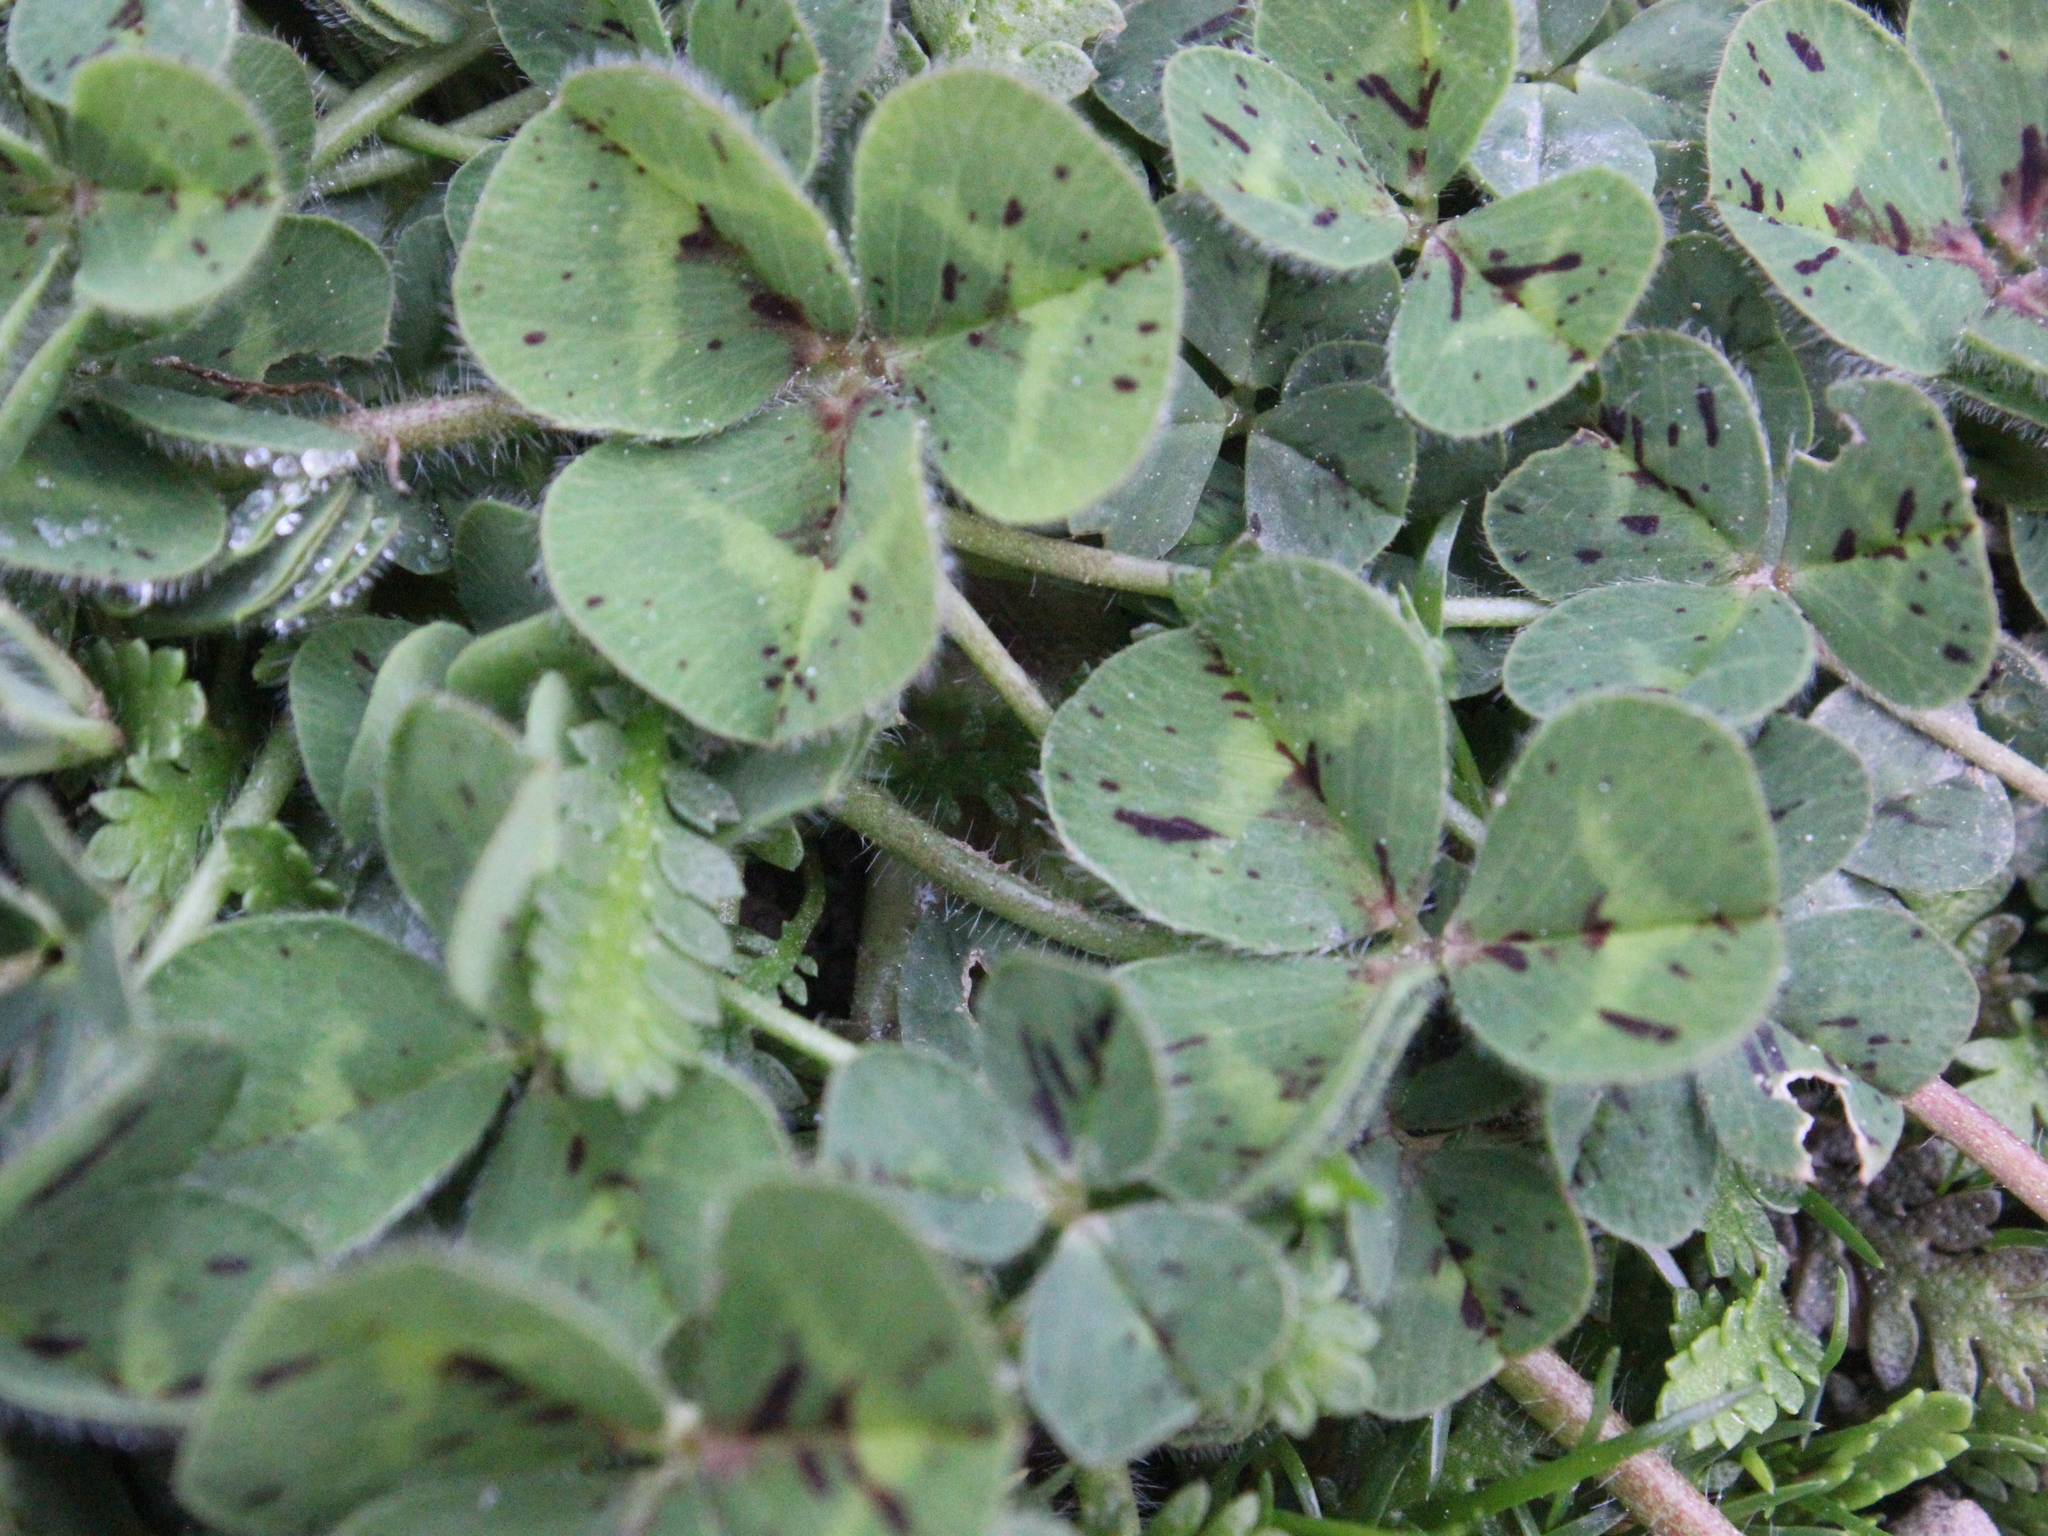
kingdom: Plantae
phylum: Tracheophyta
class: Magnoliopsida
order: Fabales
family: Fabaceae
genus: Trifolium
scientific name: Trifolium subterraneum
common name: Subterranean clover
